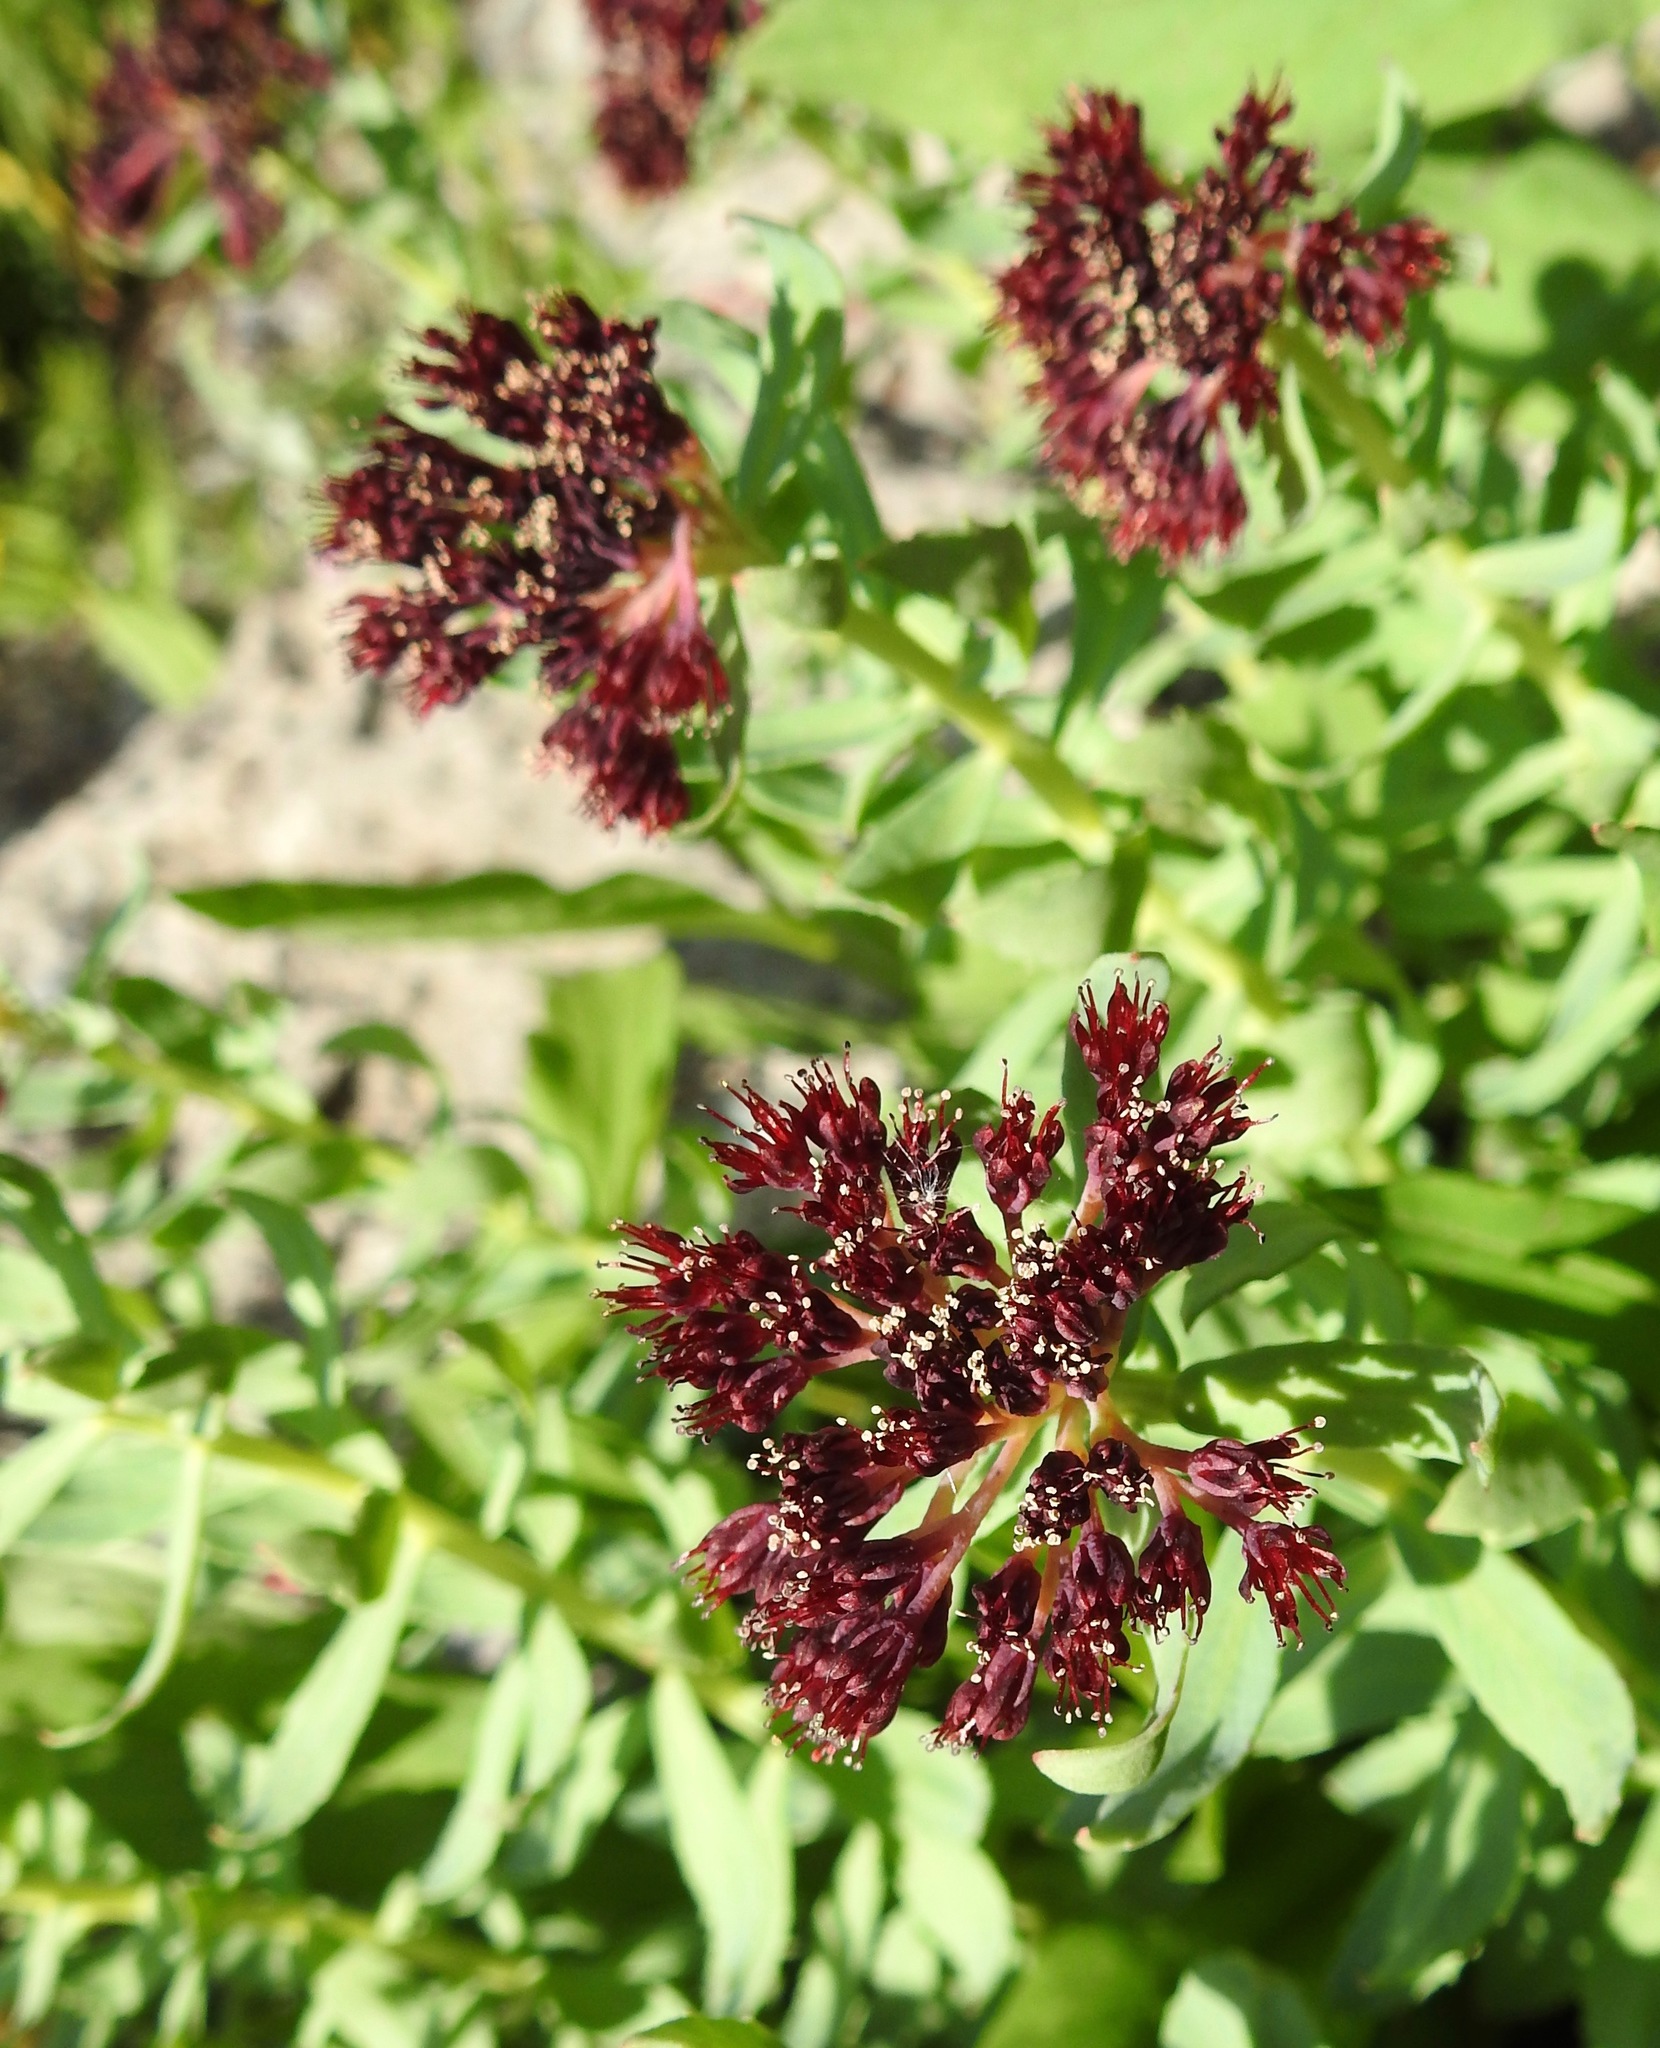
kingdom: Plantae
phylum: Tracheophyta
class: Magnoliopsida
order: Saxifragales
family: Crassulaceae
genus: Rhodiola
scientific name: Rhodiola integrifolia
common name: Western roseroot
